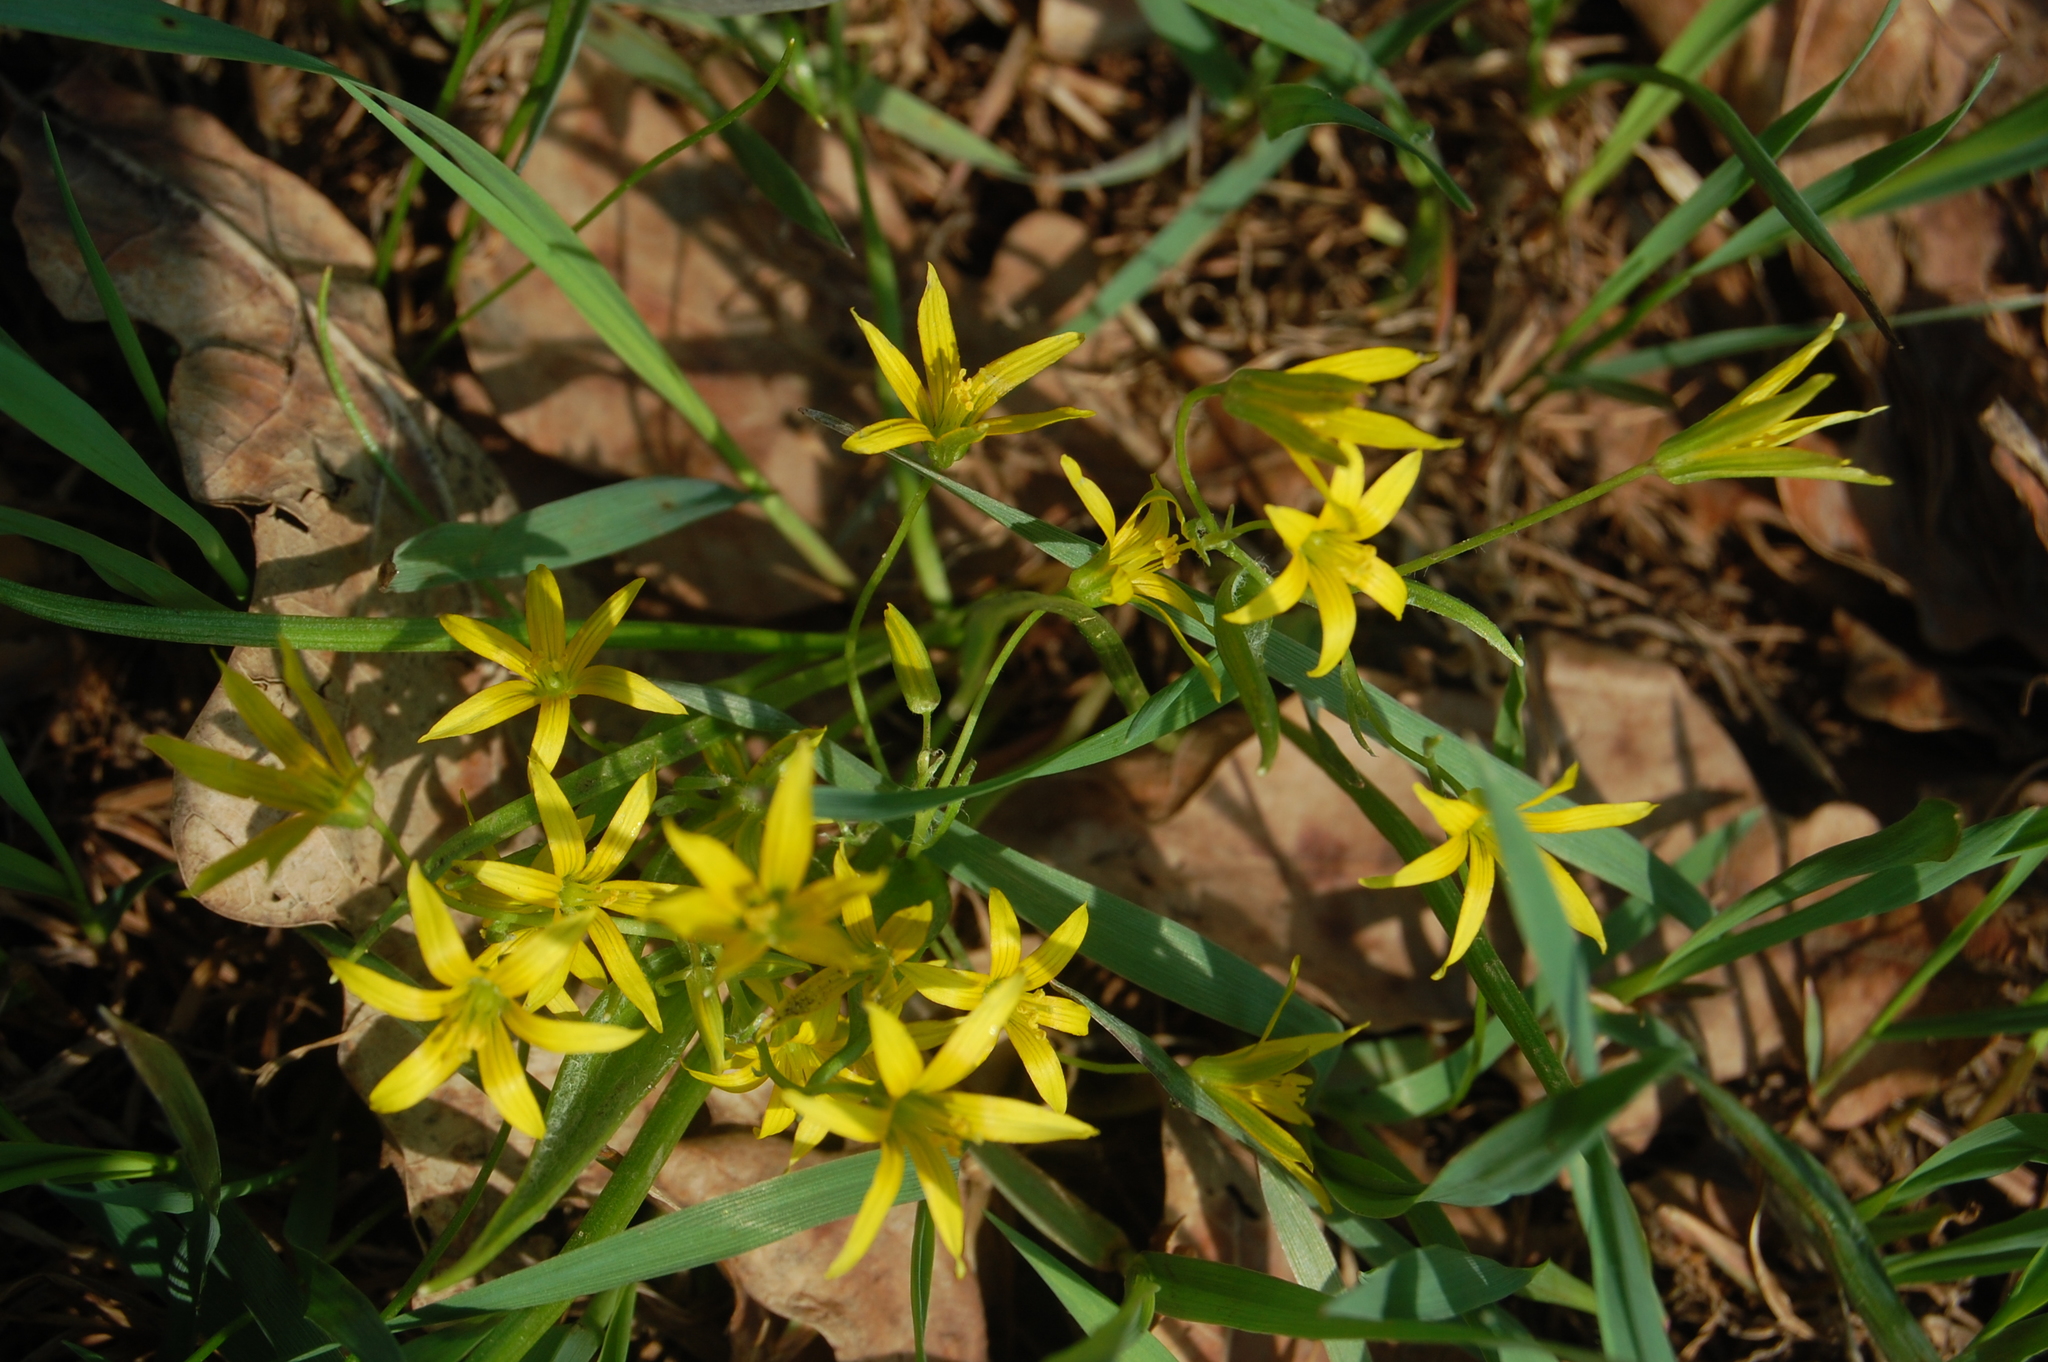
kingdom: Plantae
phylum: Tracheophyta
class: Liliopsida
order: Liliales
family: Liliaceae
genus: Gagea
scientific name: Gagea minima
